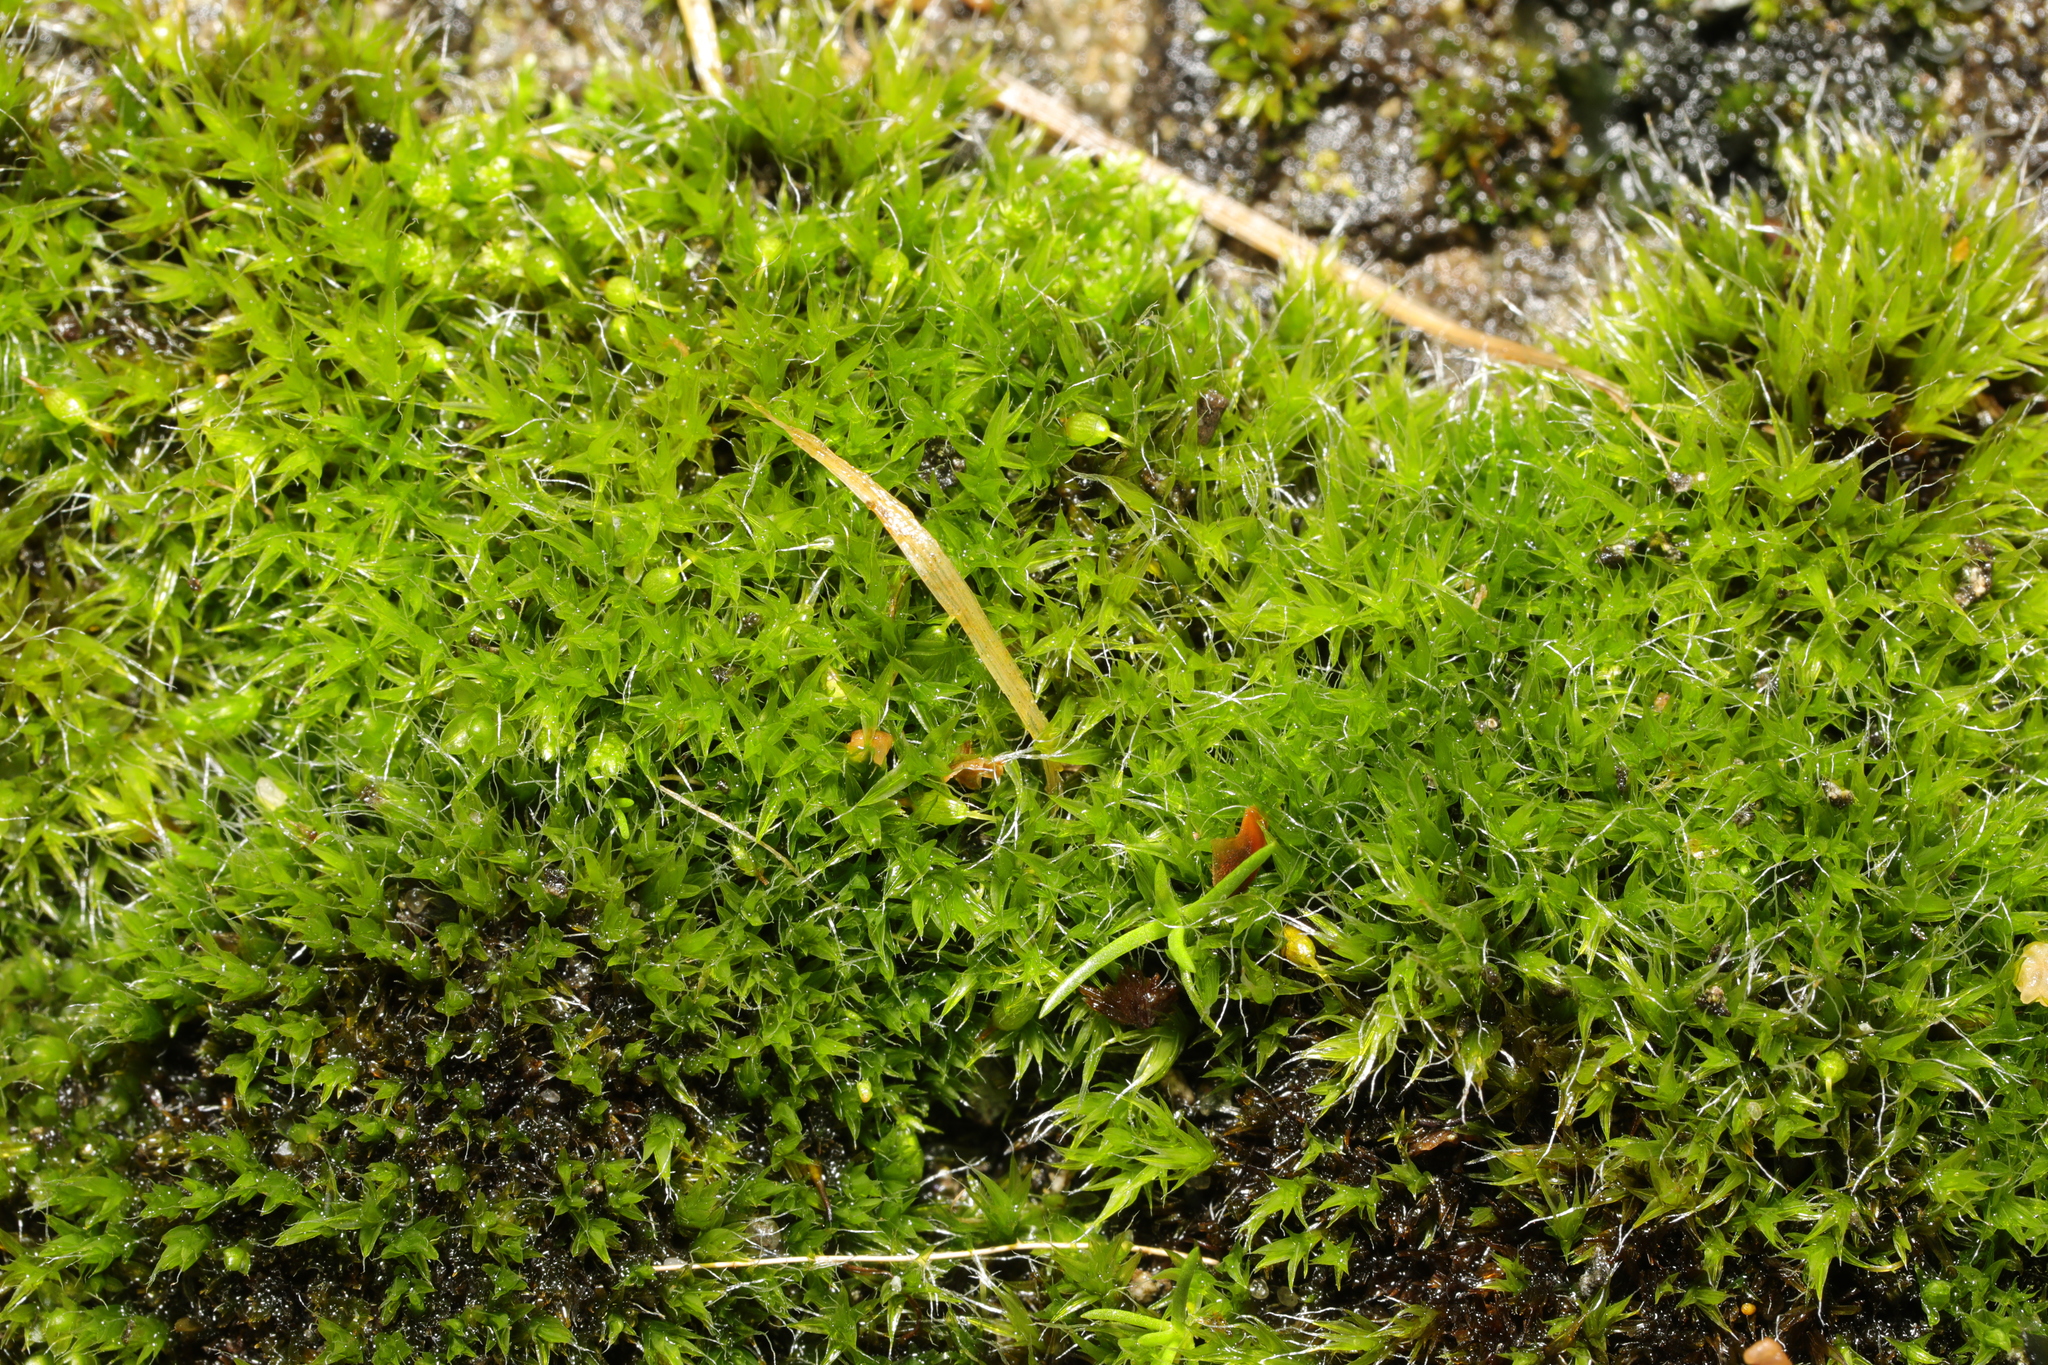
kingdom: Plantae
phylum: Bryophyta
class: Bryopsida
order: Grimmiales
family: Grimmiaceae
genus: Grimmia
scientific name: Grimmia pulvinata
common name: Grey-cushioned grimmia
